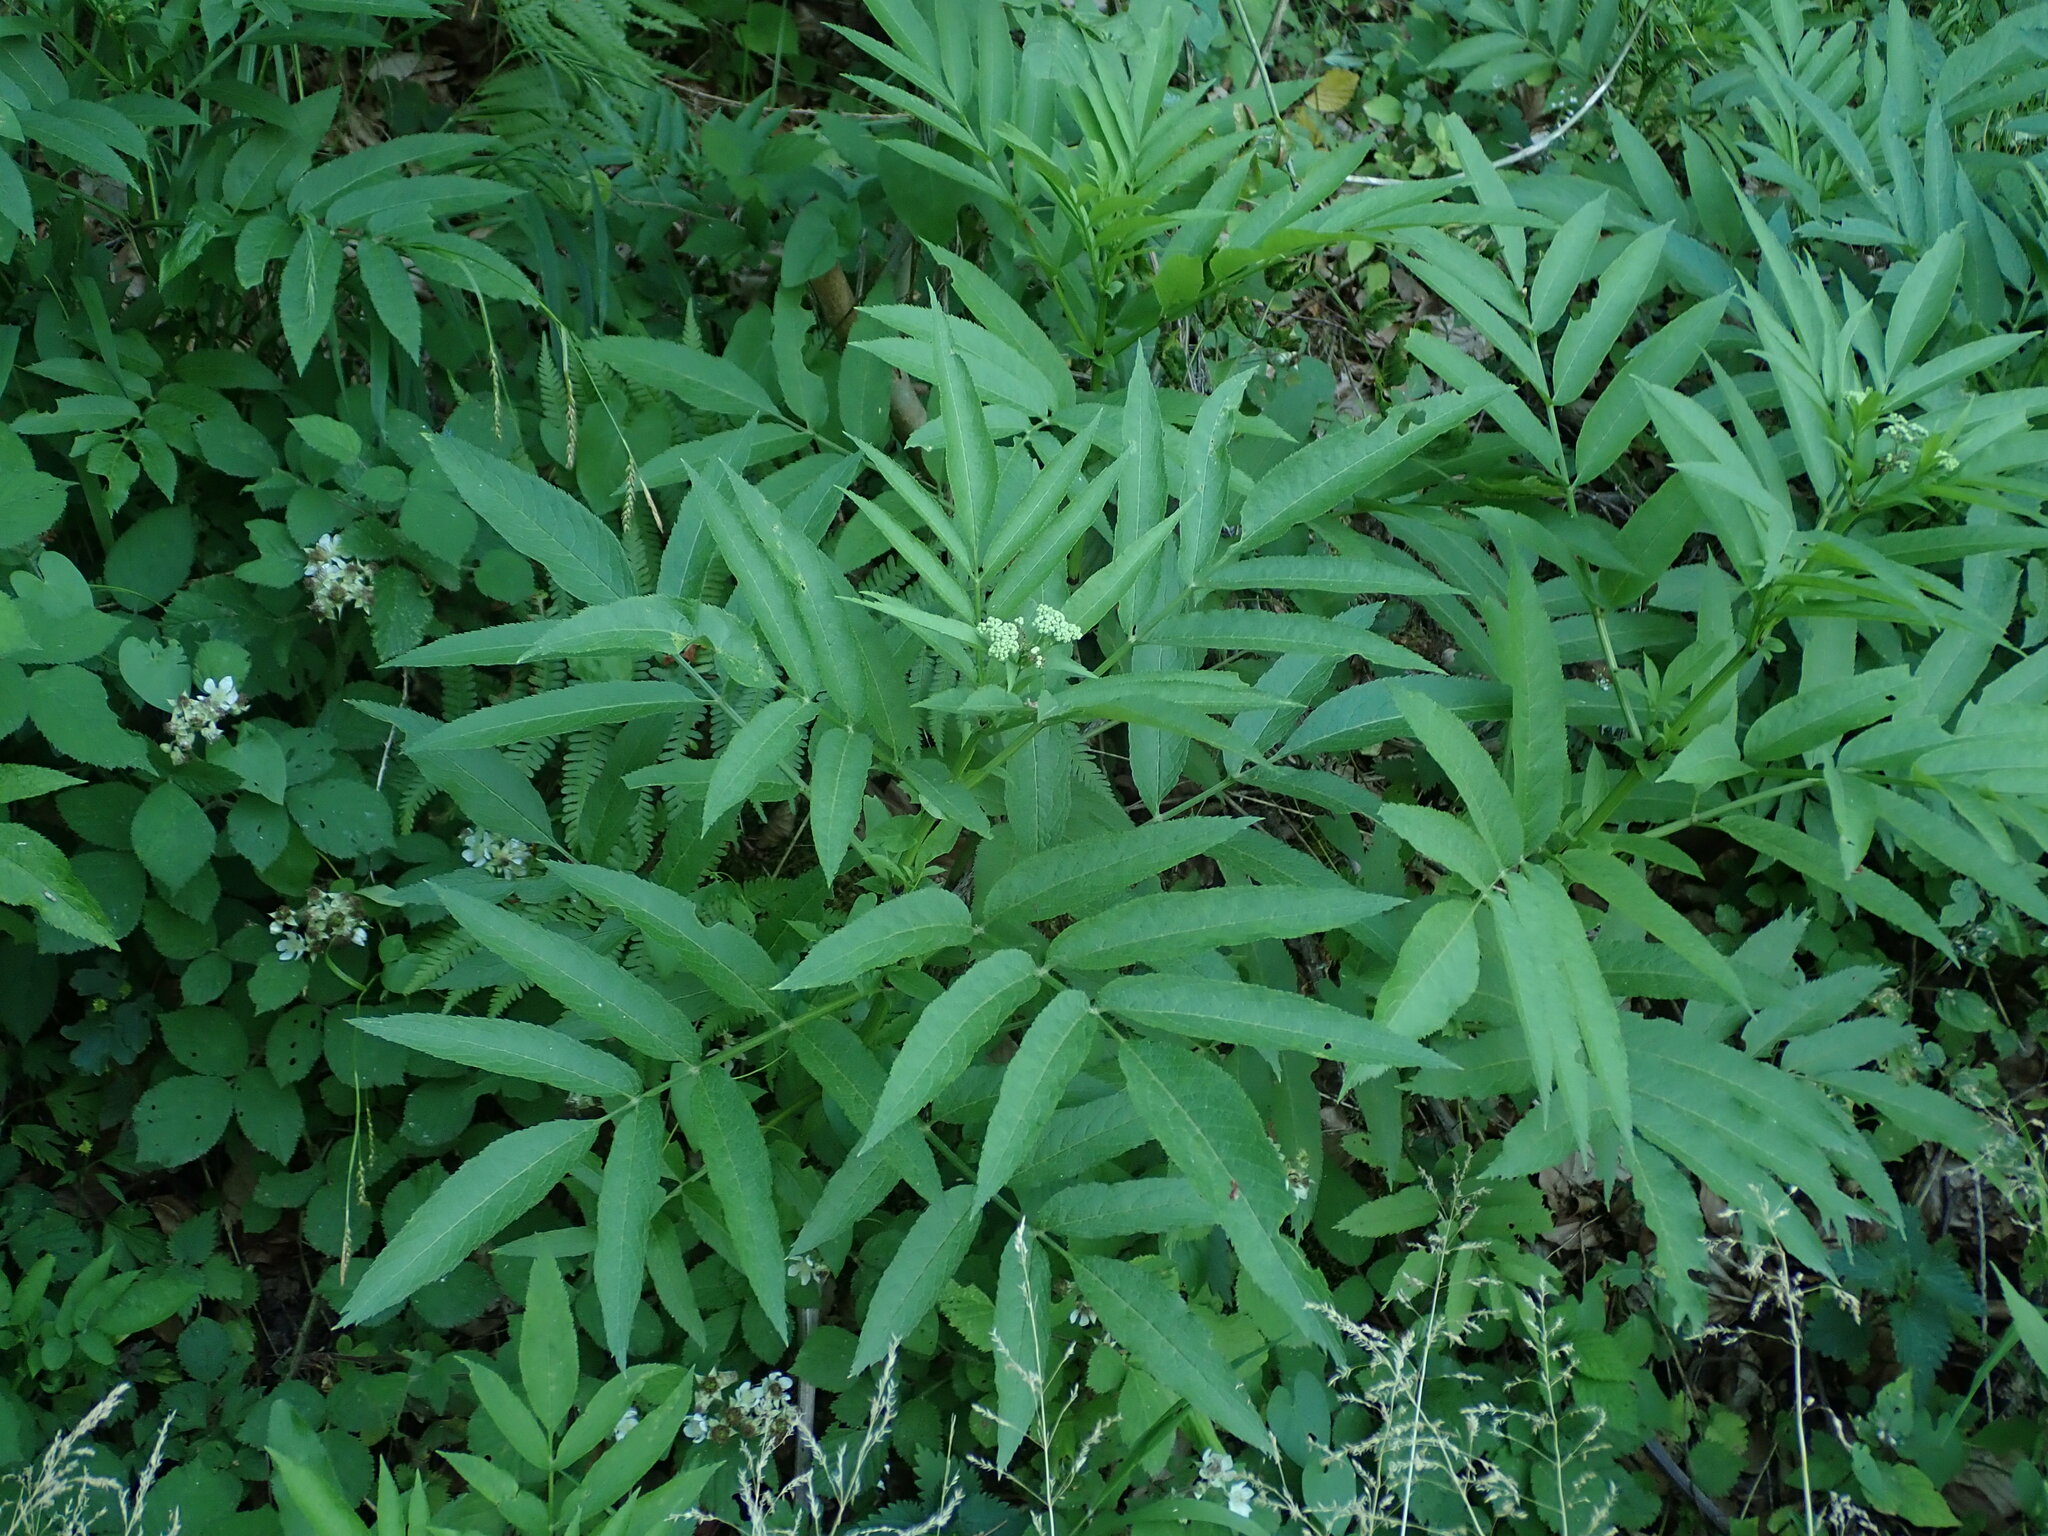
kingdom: Plantae
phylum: Tracheophyta
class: Magnoliopsida
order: Dipsacales
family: Viburnaceae
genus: Sambucus
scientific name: Sambucus ebulus
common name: Dwarf elder
